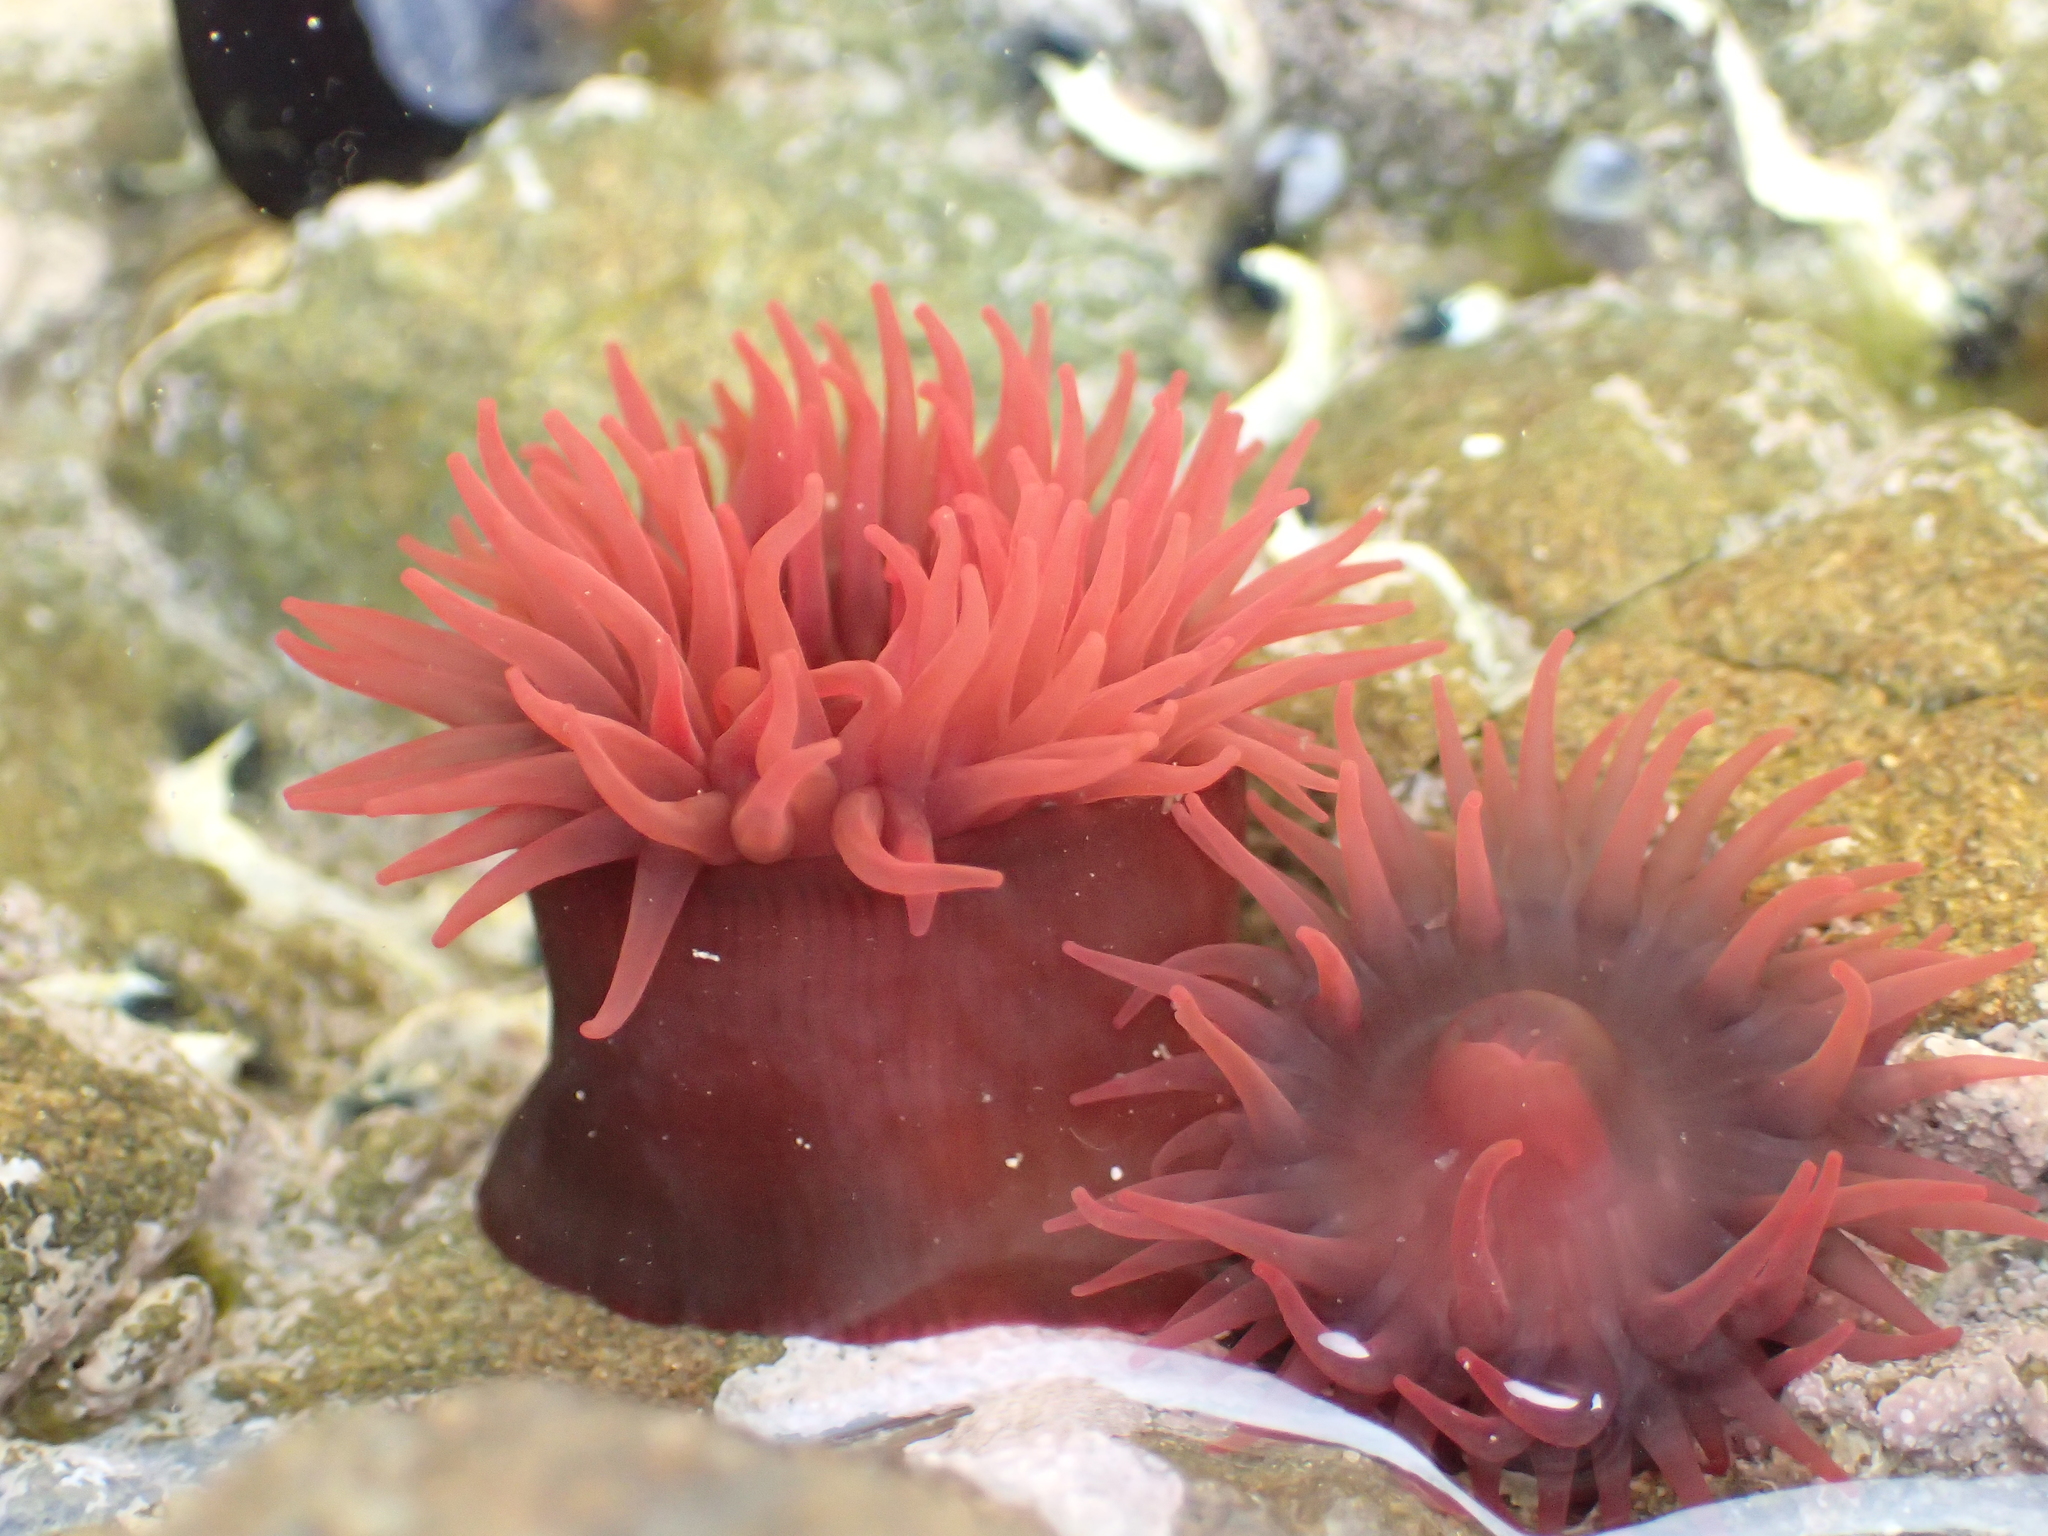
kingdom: Animalia
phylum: Cnidaria
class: Anthozoa
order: Actiniaria
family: Actiniidae
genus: Actinia
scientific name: Actinia tenebrosa
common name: Waratah anemone
